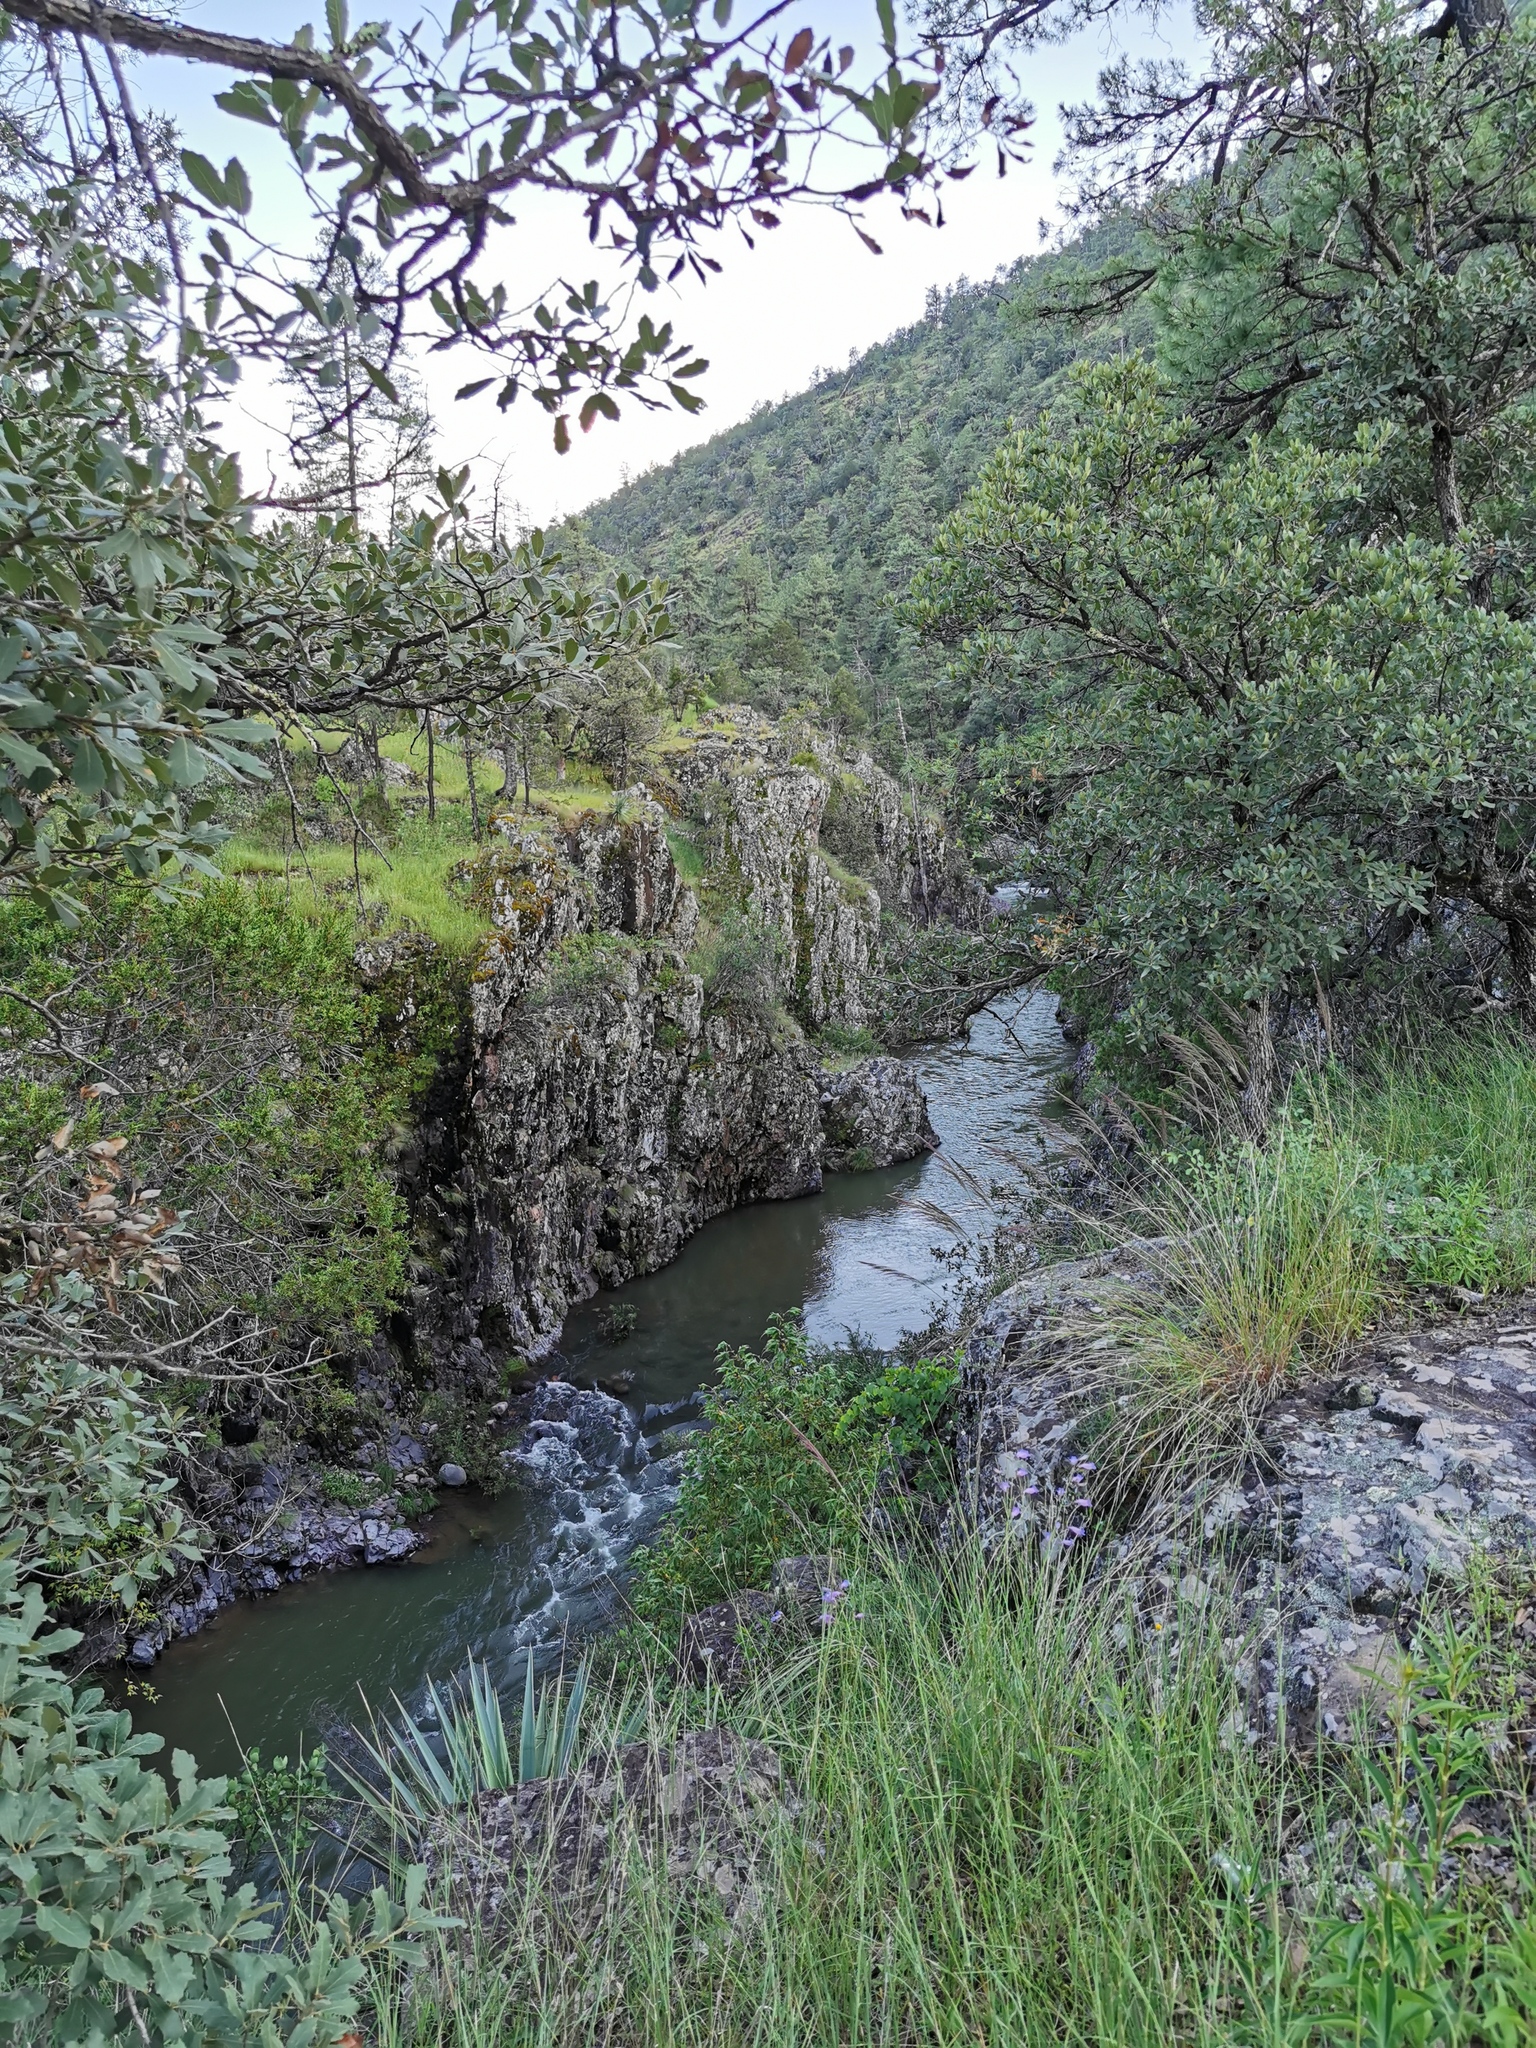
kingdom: Plantae
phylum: Tracheophyta
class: Magnoliopsida
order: Fagales
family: Fagaceae
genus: Quercus
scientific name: Quercus arizonica
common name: Arizona white oak
